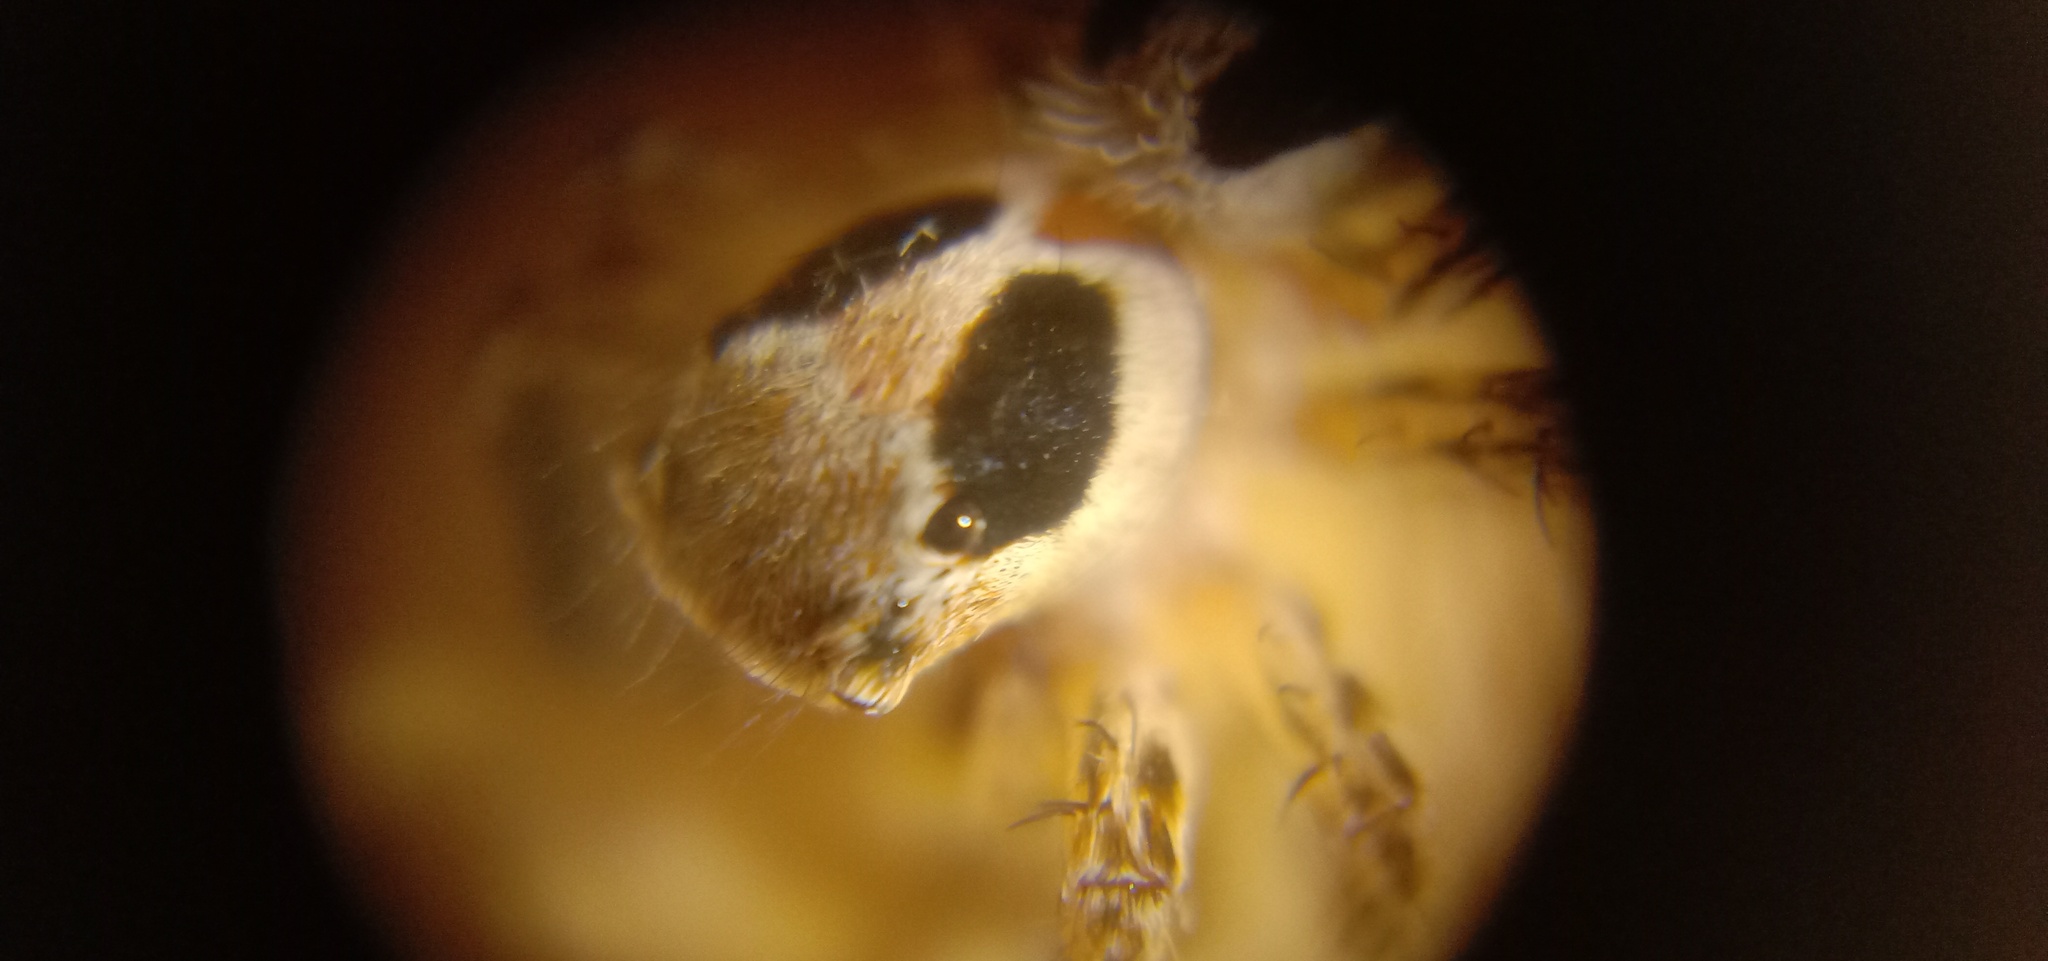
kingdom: Animalia
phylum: Arthropoda
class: Arachnida
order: Araneae
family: Salticidae
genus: Plexippus
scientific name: Plexippus petersi
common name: Jumping spider
